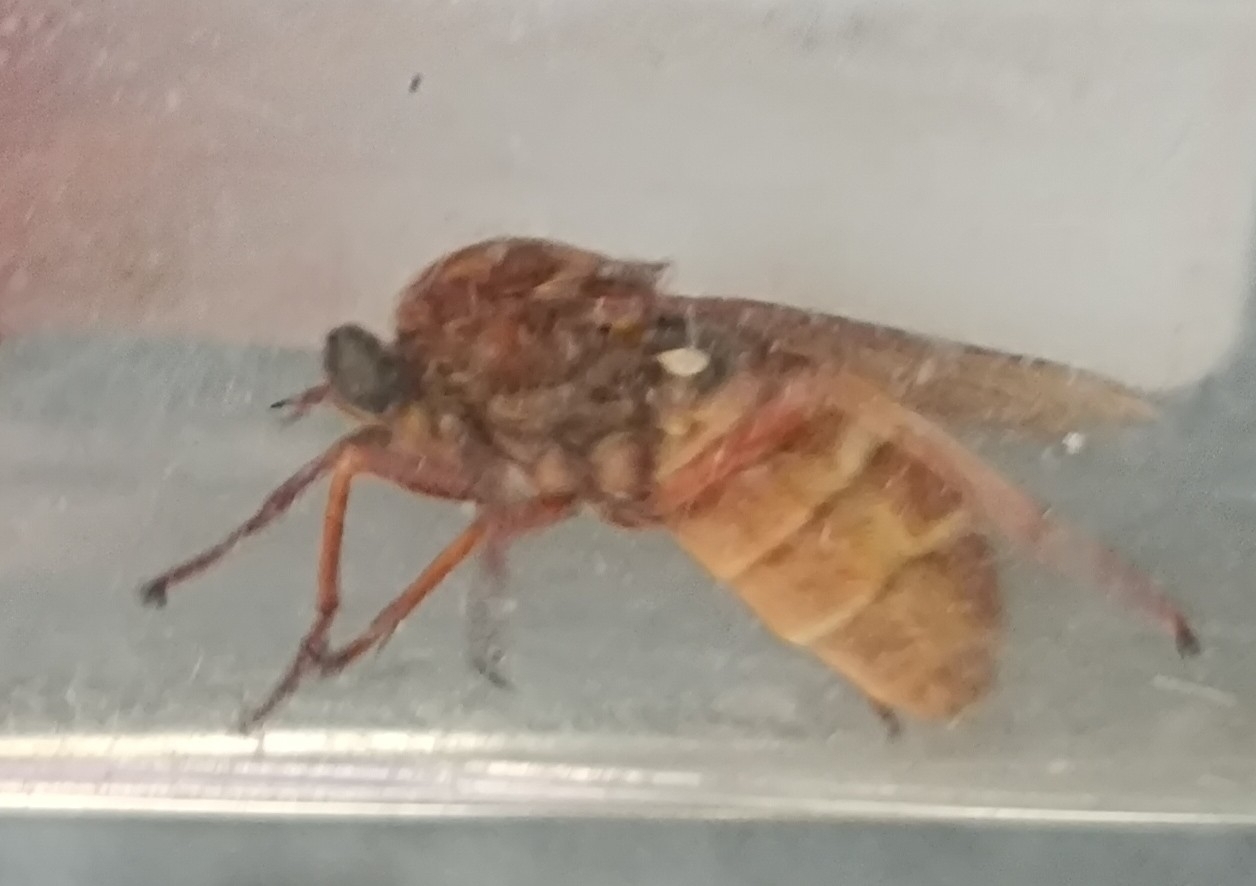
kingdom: Animalia
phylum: Arthropoda
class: Insecta
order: Diptera
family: Xylophagidae
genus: Coenomyia
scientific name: Coenomyia ferruginea
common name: Stink fly
